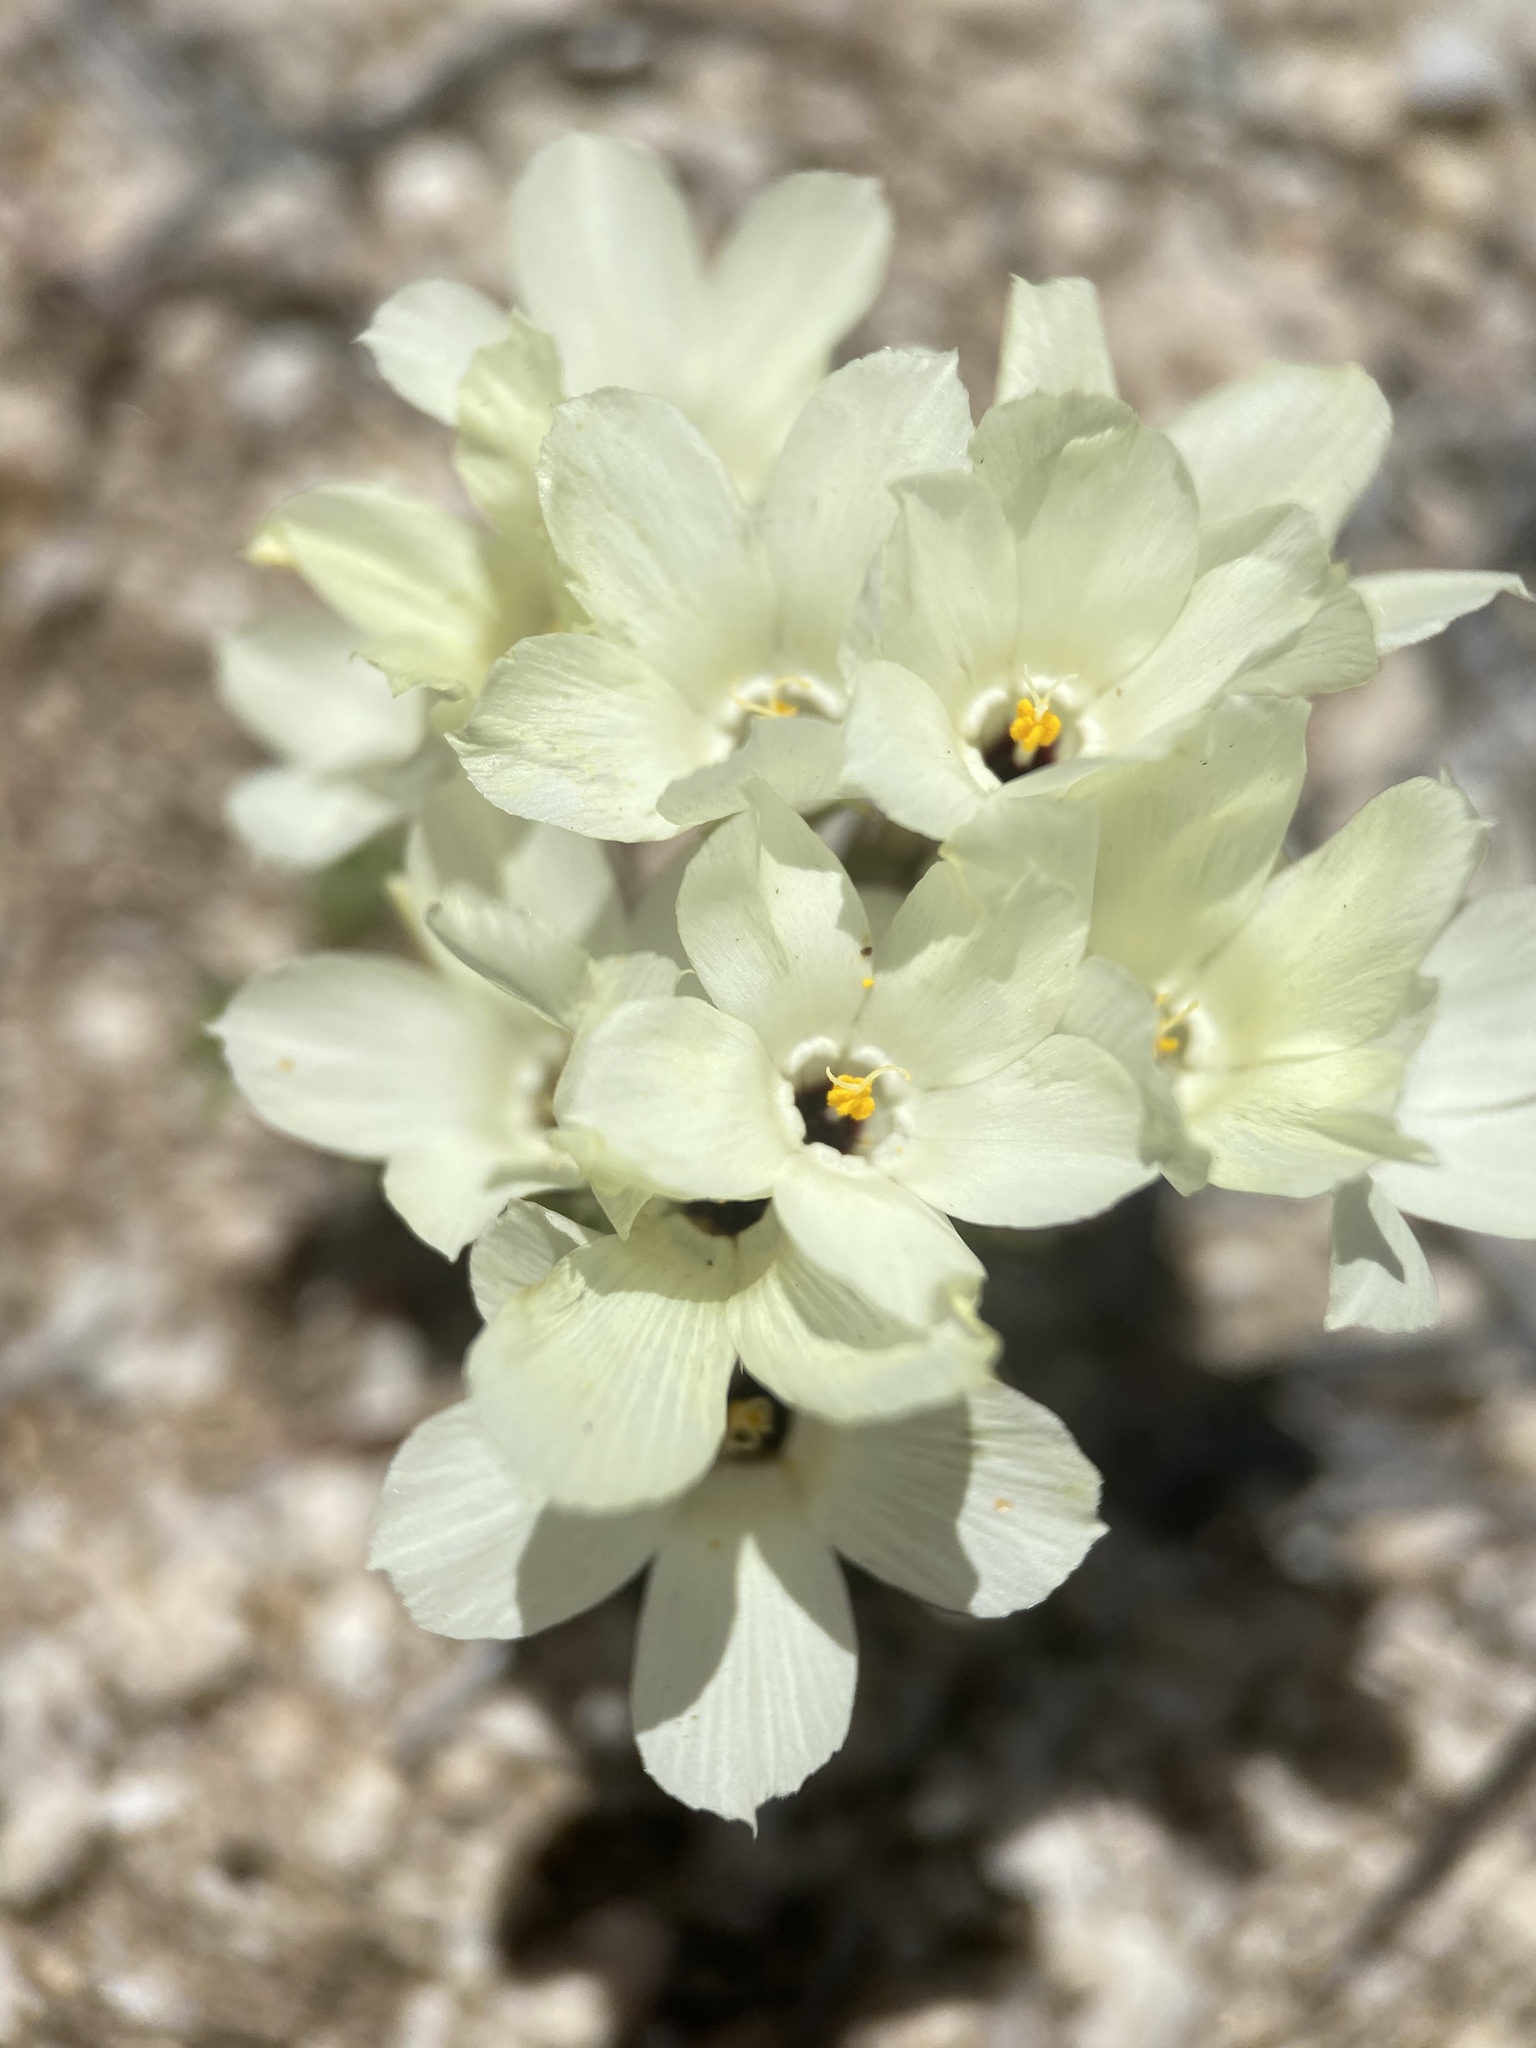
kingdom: Plantae
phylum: Tracheophyta
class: Magnoliopsida
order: Ericales
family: Polemoniaceae
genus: Linanthus
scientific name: Linanthus parryae
